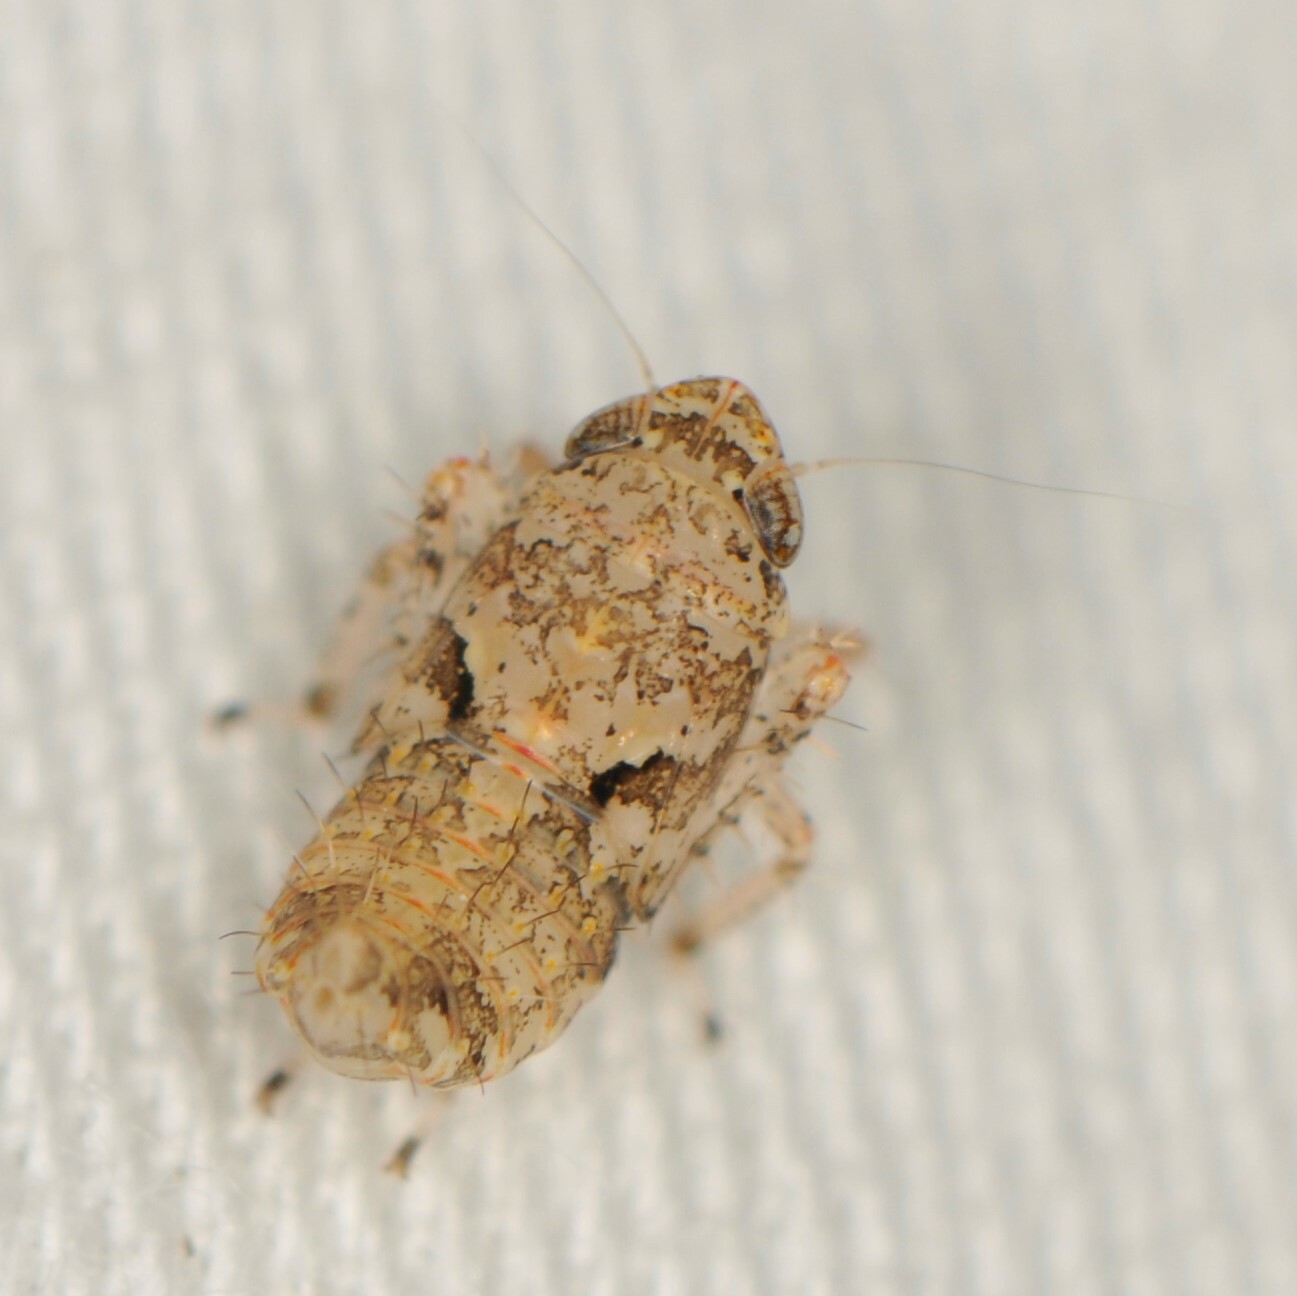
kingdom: Animalia
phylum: Arthropoda
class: Insecta
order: Hemiptera
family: Cicadellidae
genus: Texananus
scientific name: Texananus
